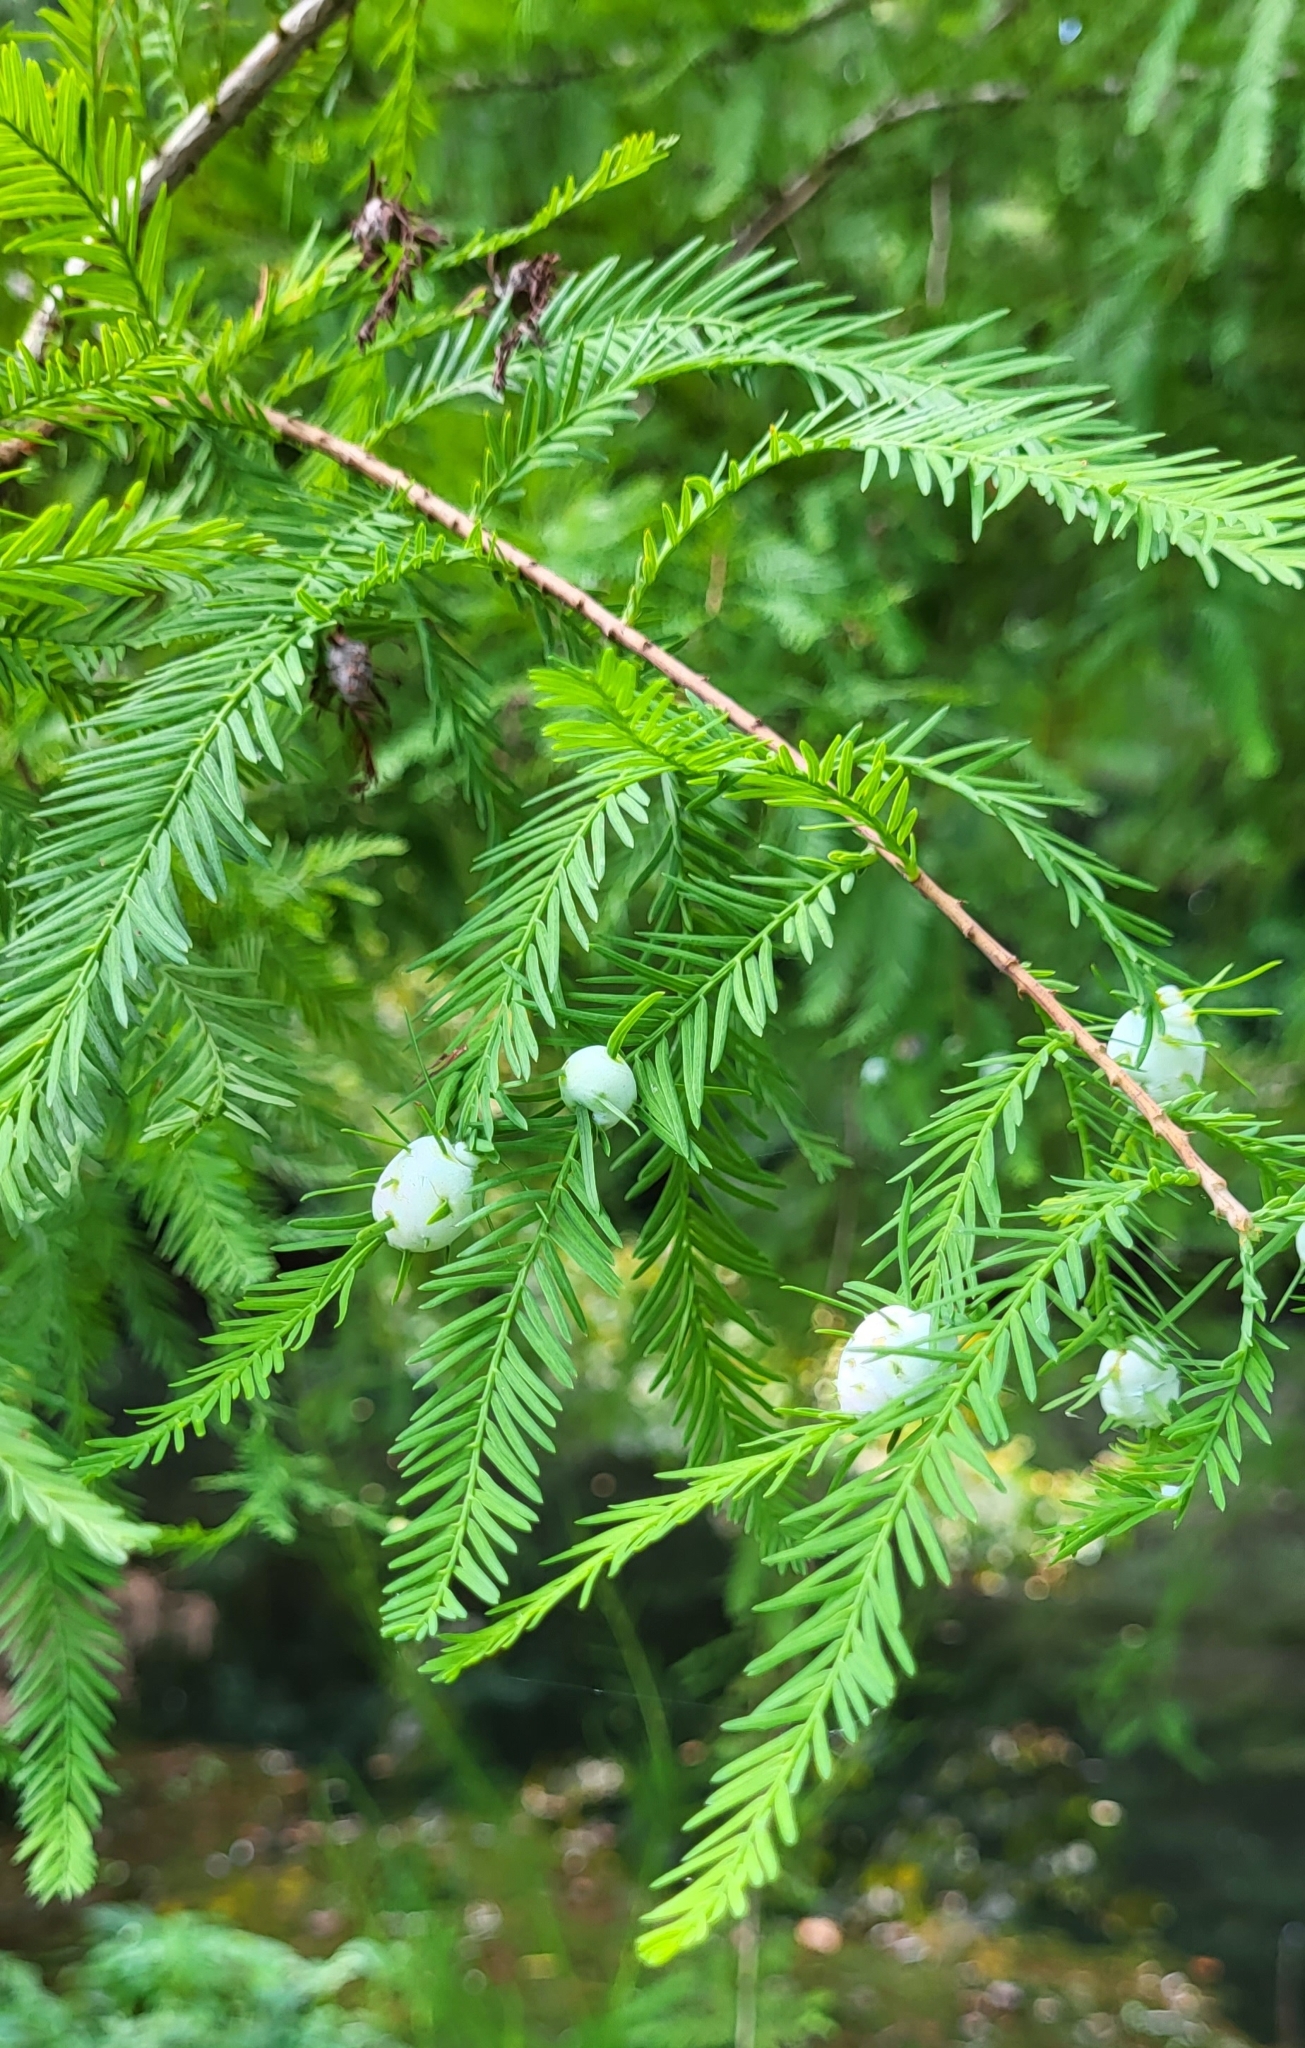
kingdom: Animalia
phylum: Arthropoda
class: Insecta
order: Diptera
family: Cecidomyiidae
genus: Taxodiomyia
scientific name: Taxodiomyia cupressiananassa
